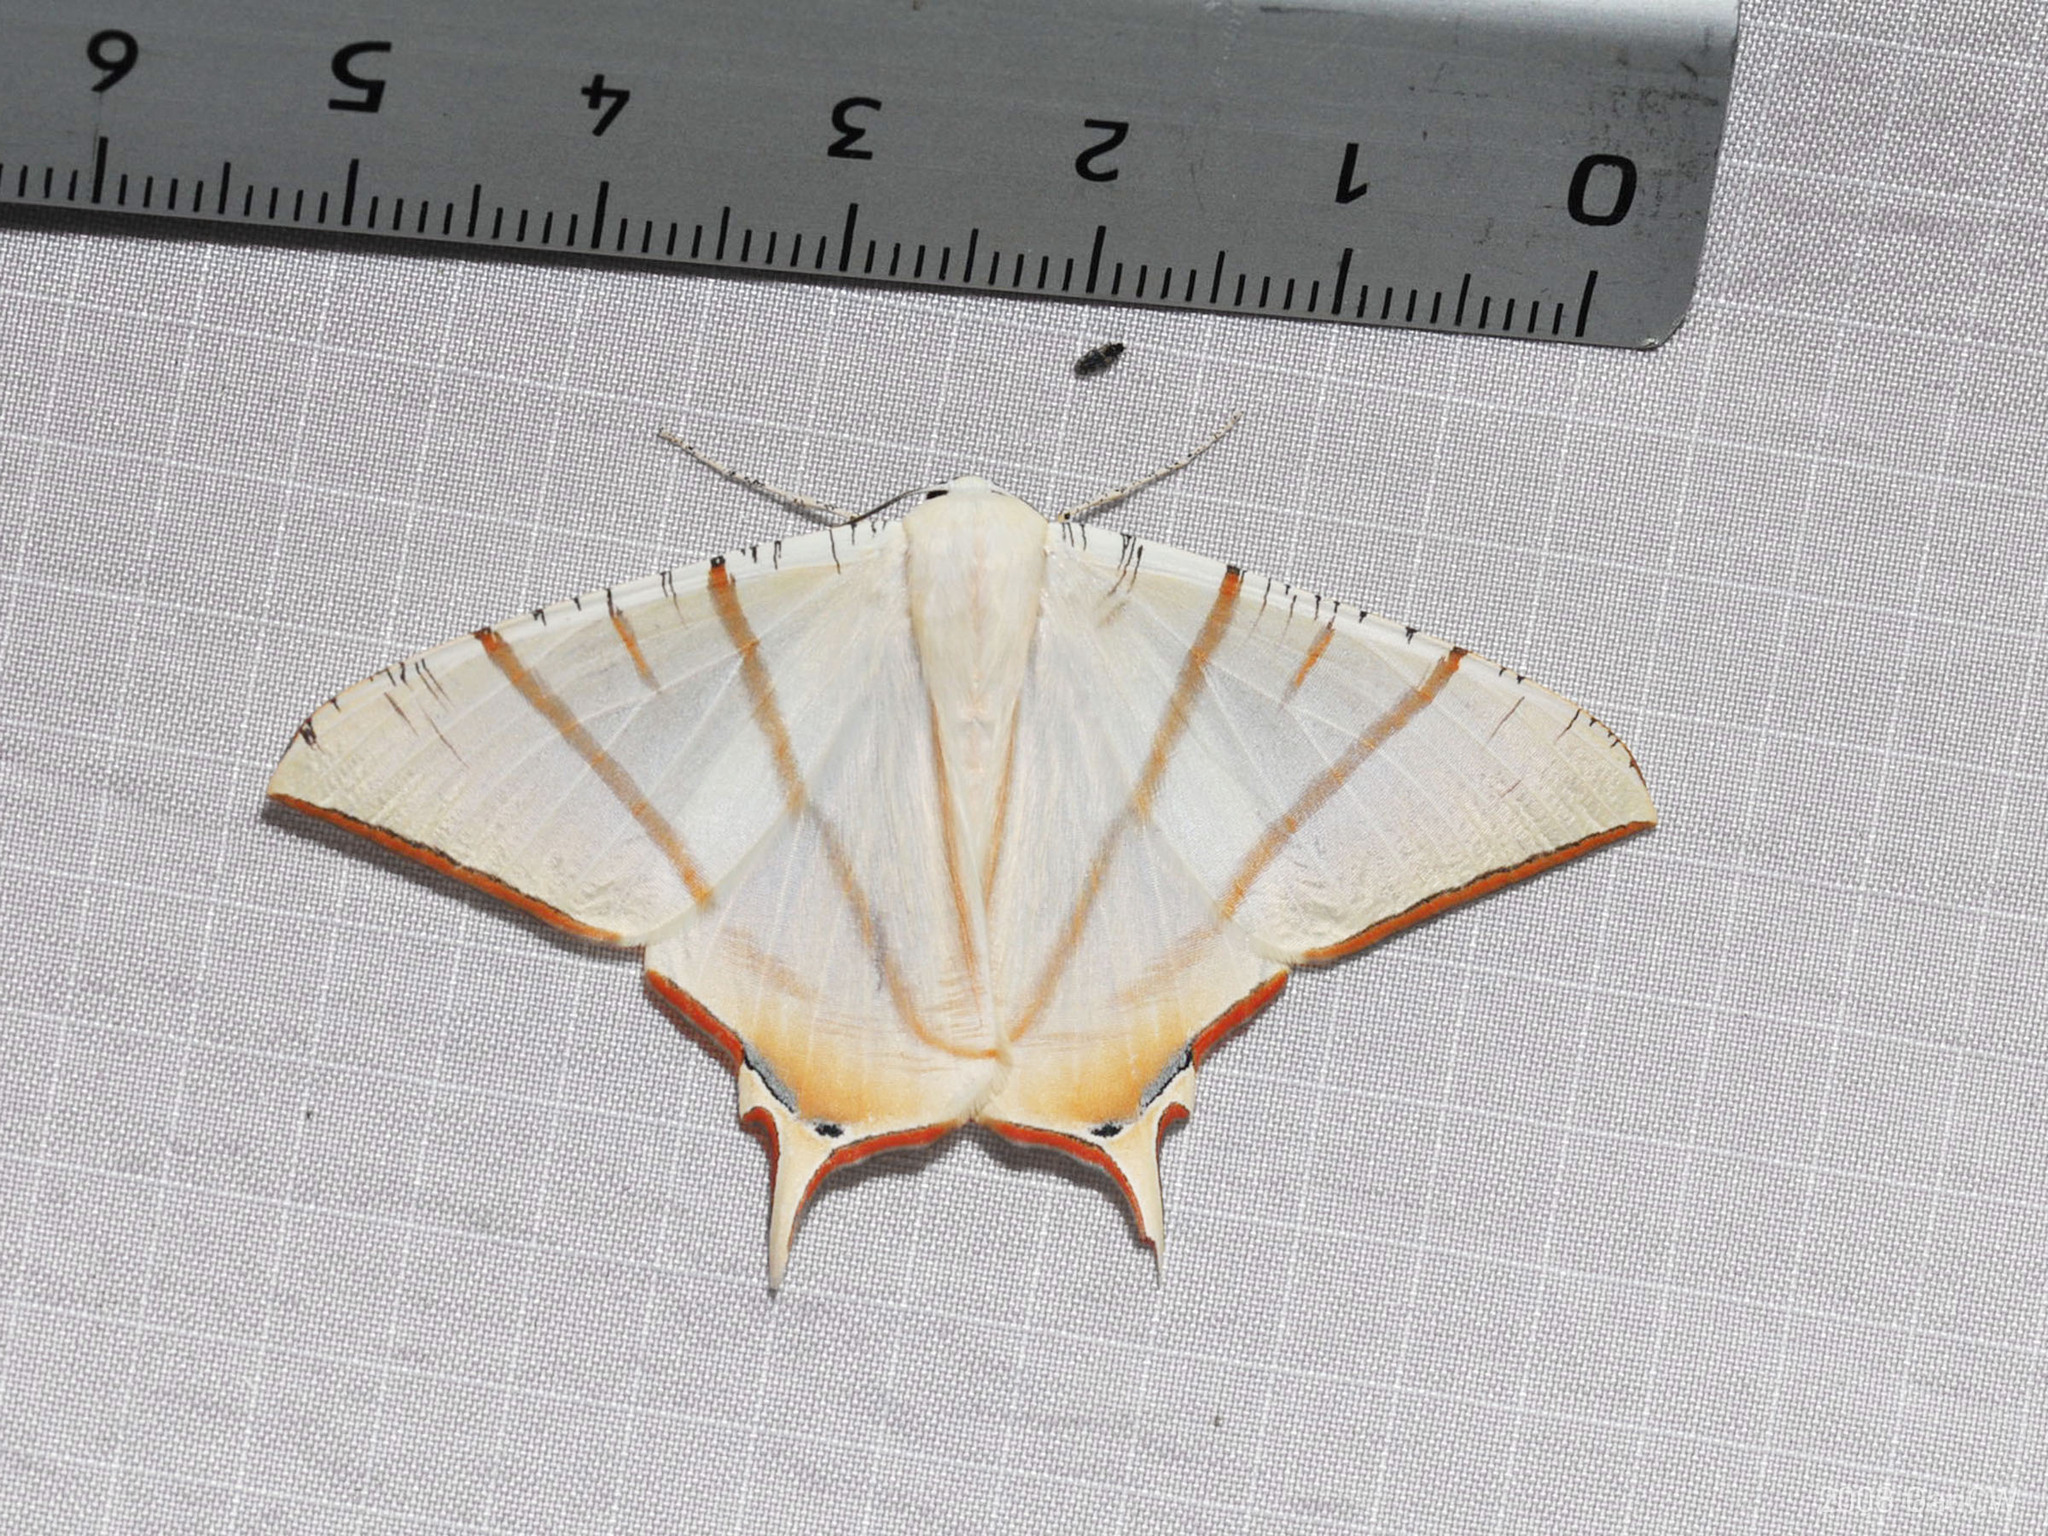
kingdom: Animalia
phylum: Arthropoda
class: Insecta
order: Lepidoptera
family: Geometridae
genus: Ourapteryx
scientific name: Ourapteryx claretta
